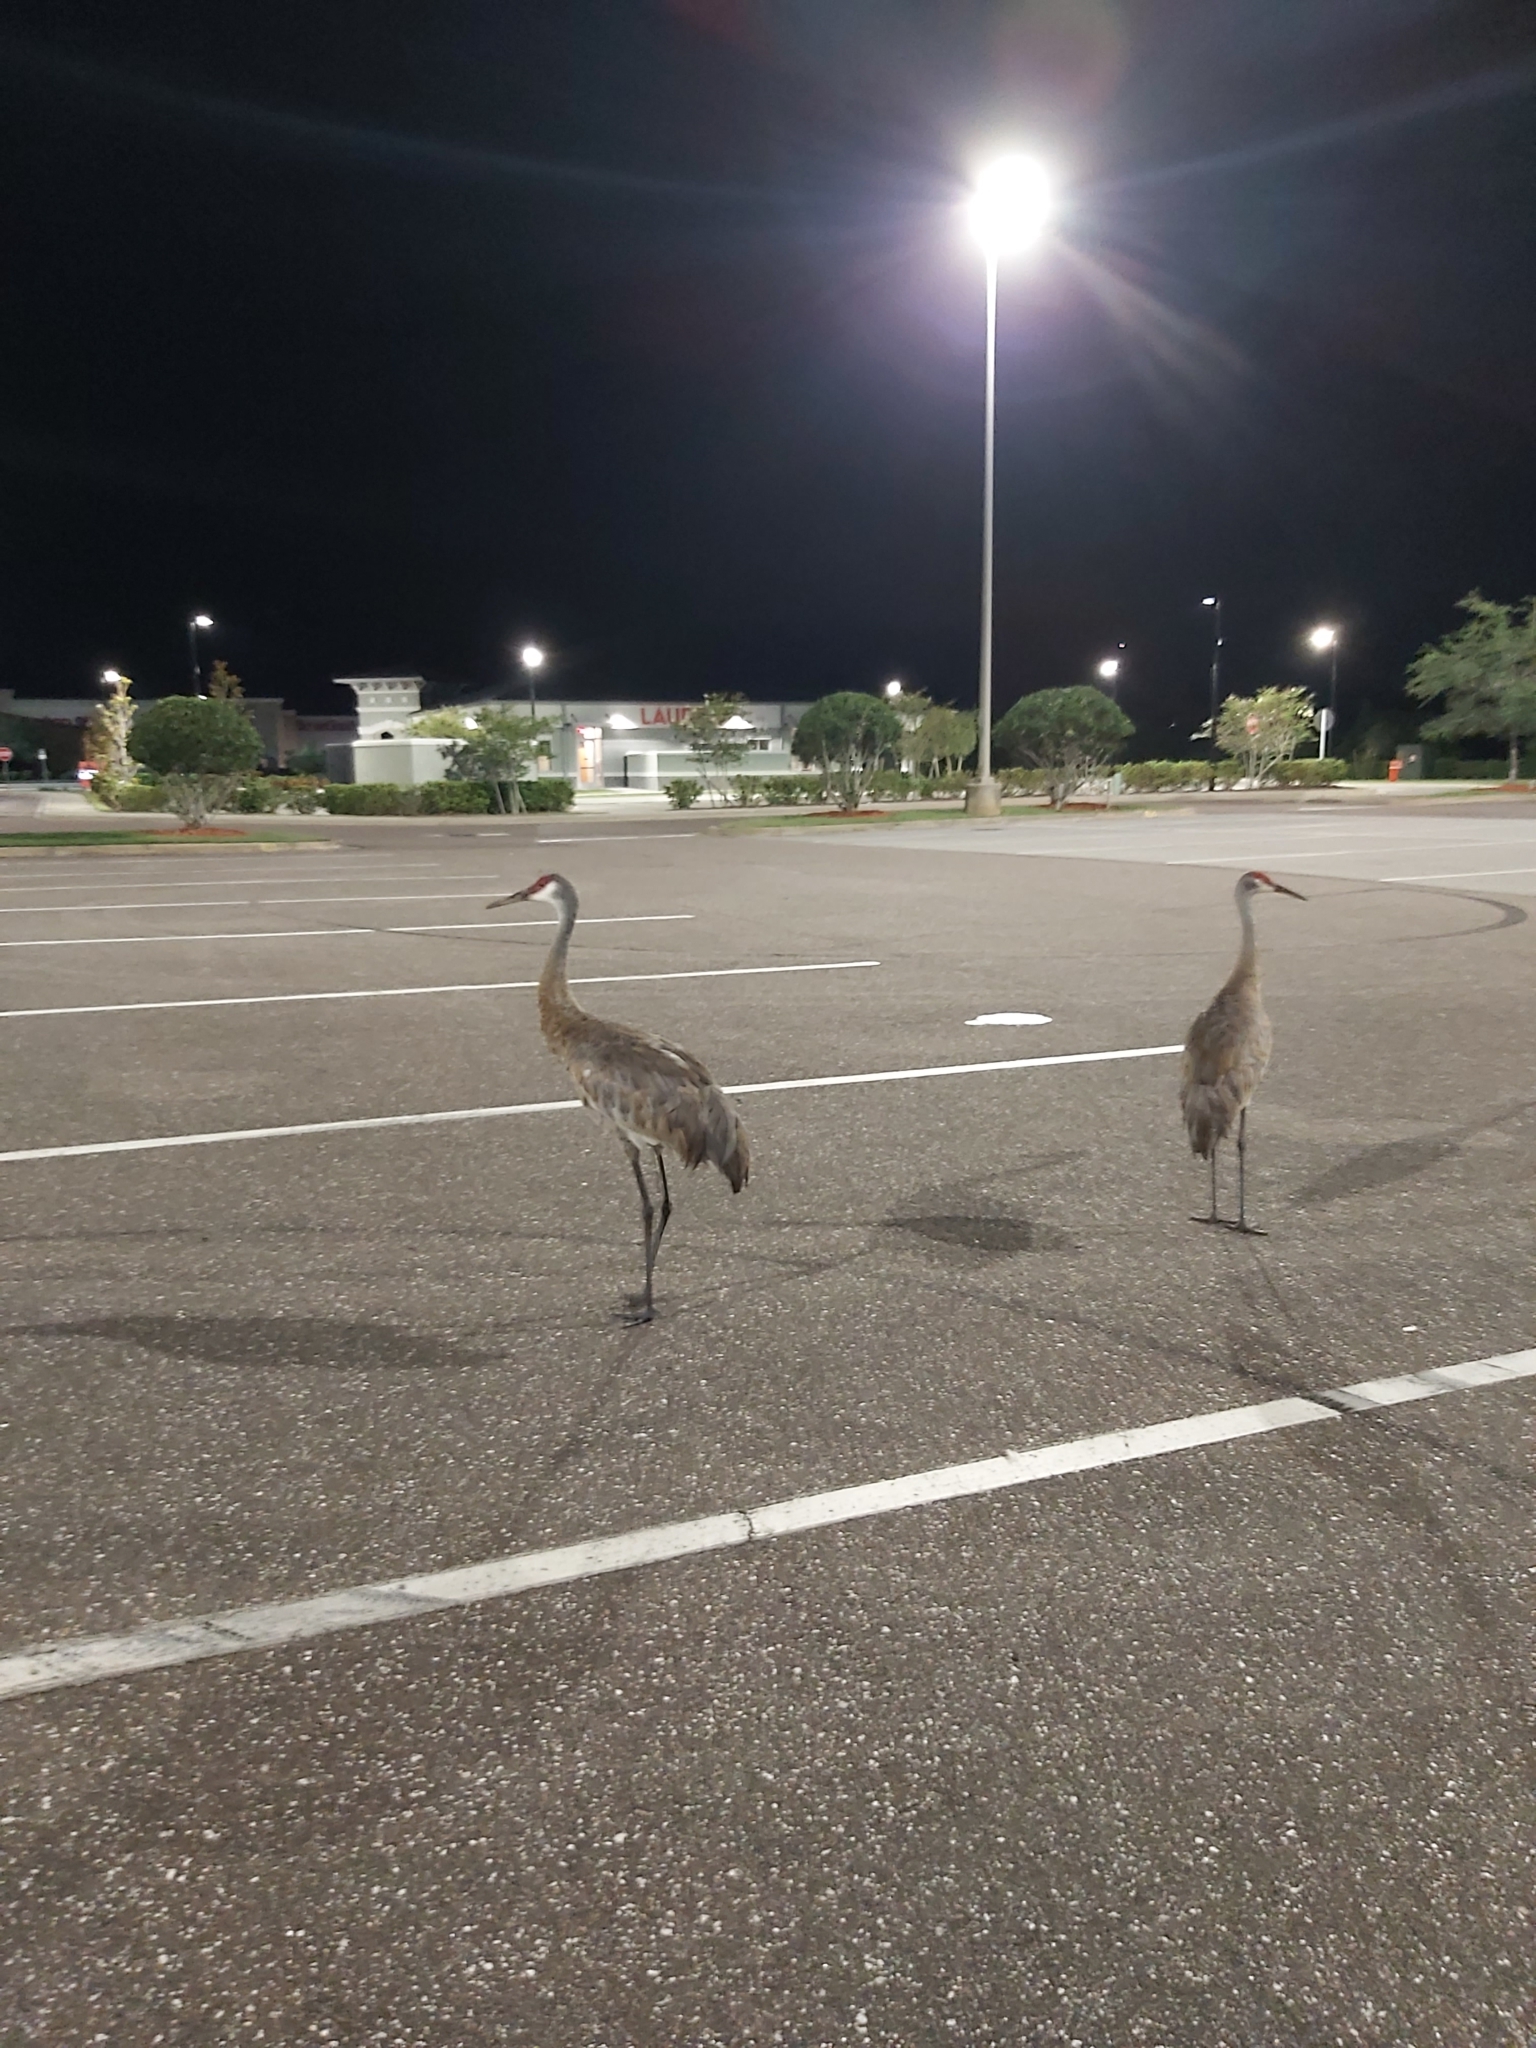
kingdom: Animalia
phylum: Chordata
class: Aves
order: Gruiformes
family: Gruidae
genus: Grus
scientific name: Grus canadensis
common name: Sandhill crane
